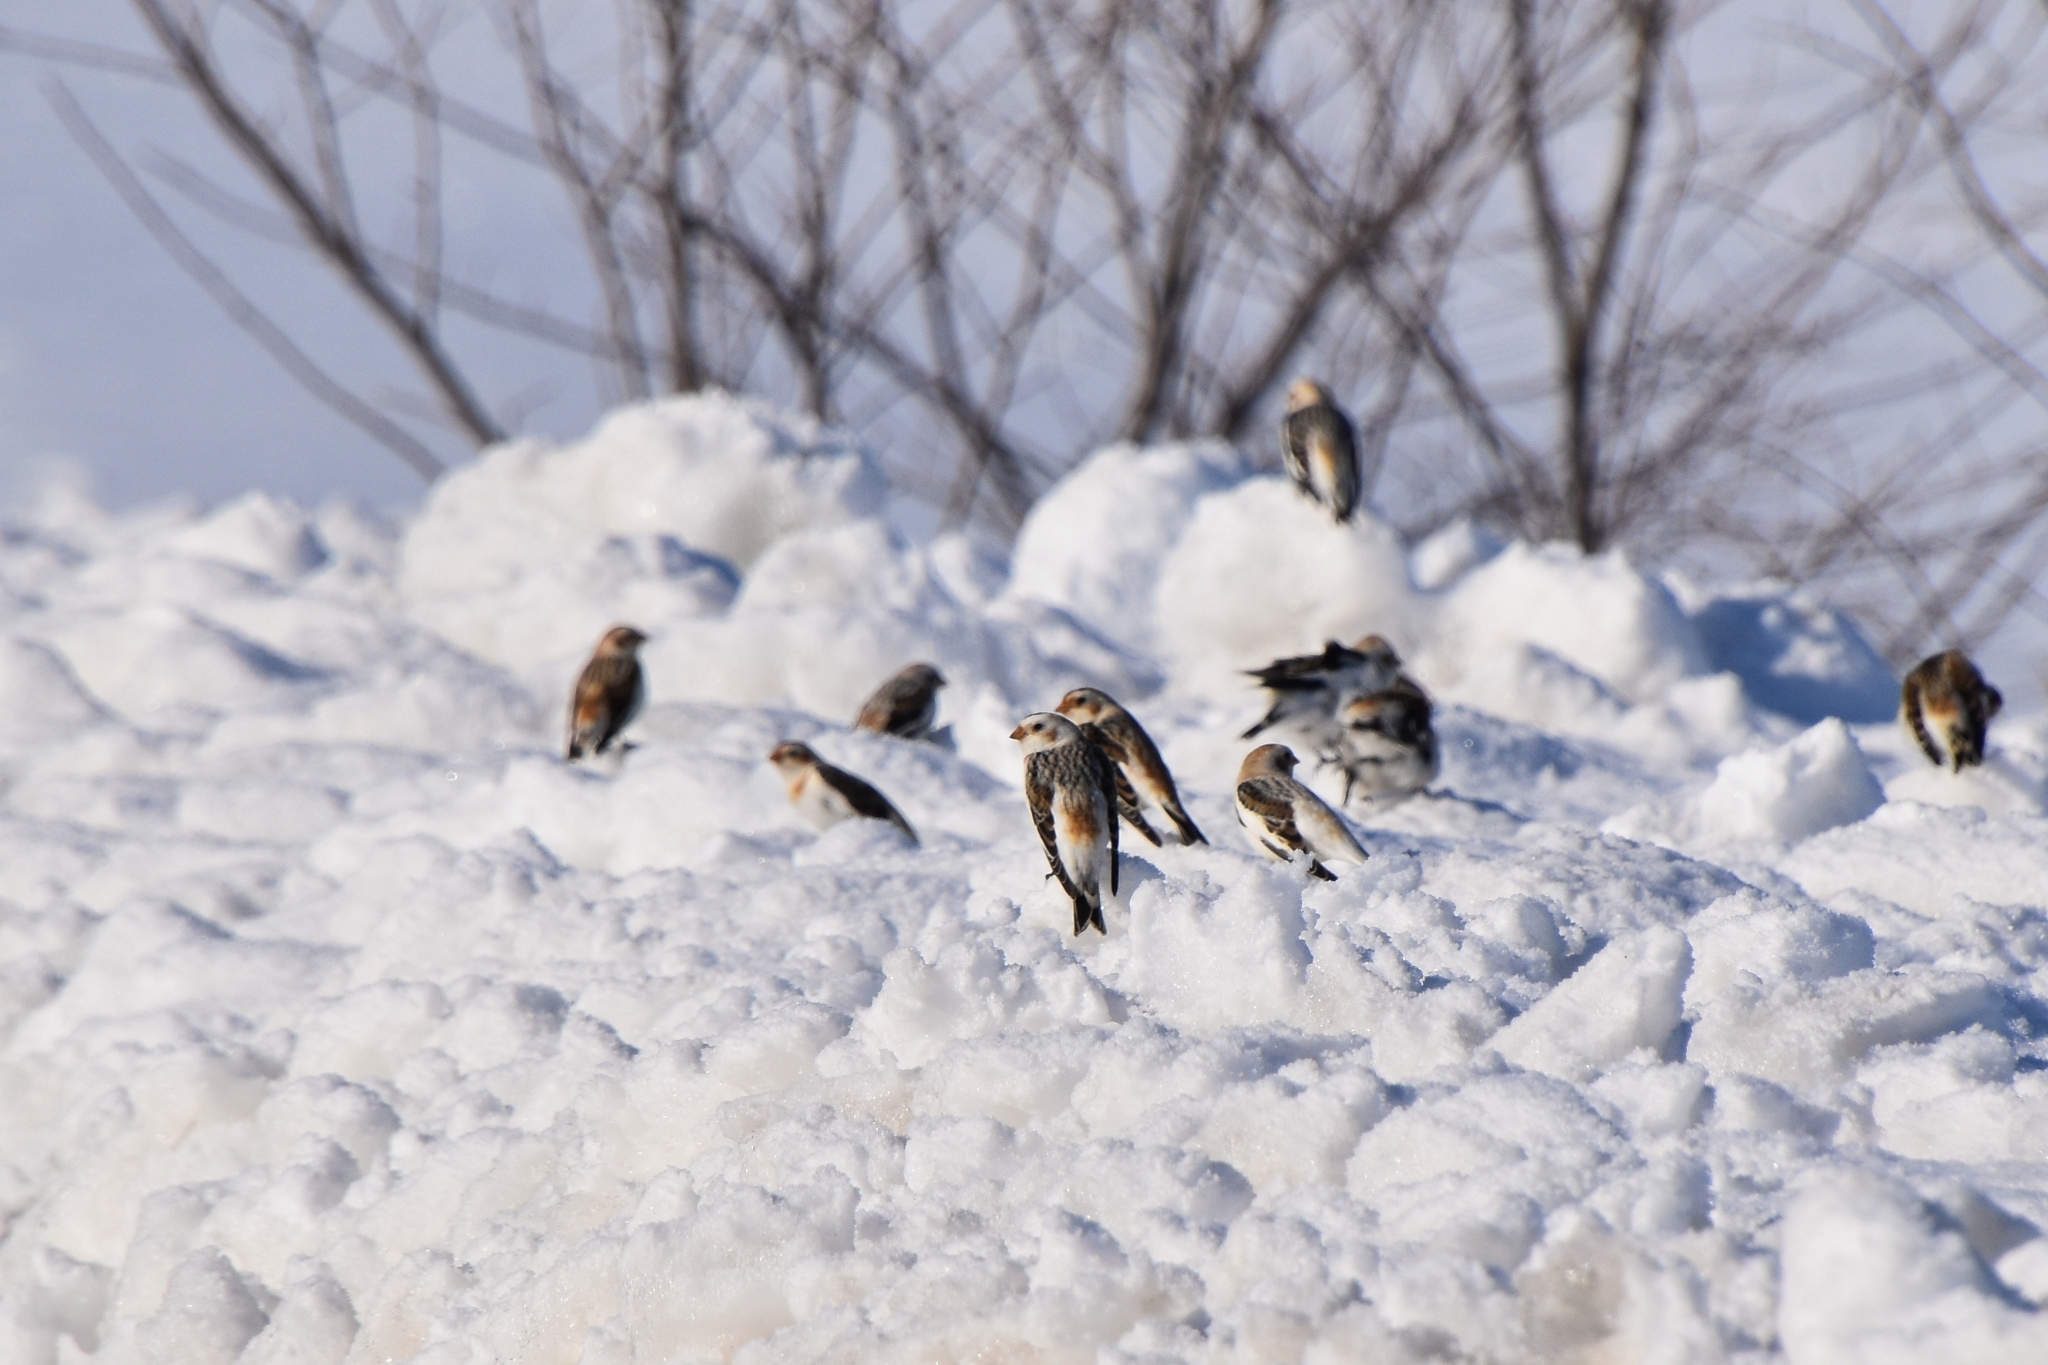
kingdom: Animalia
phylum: Chordata
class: Aves
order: Passeriformes
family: Calcariidae
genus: Plectrophenax
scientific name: Plectrophenax nivalis
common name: Snow bunting
